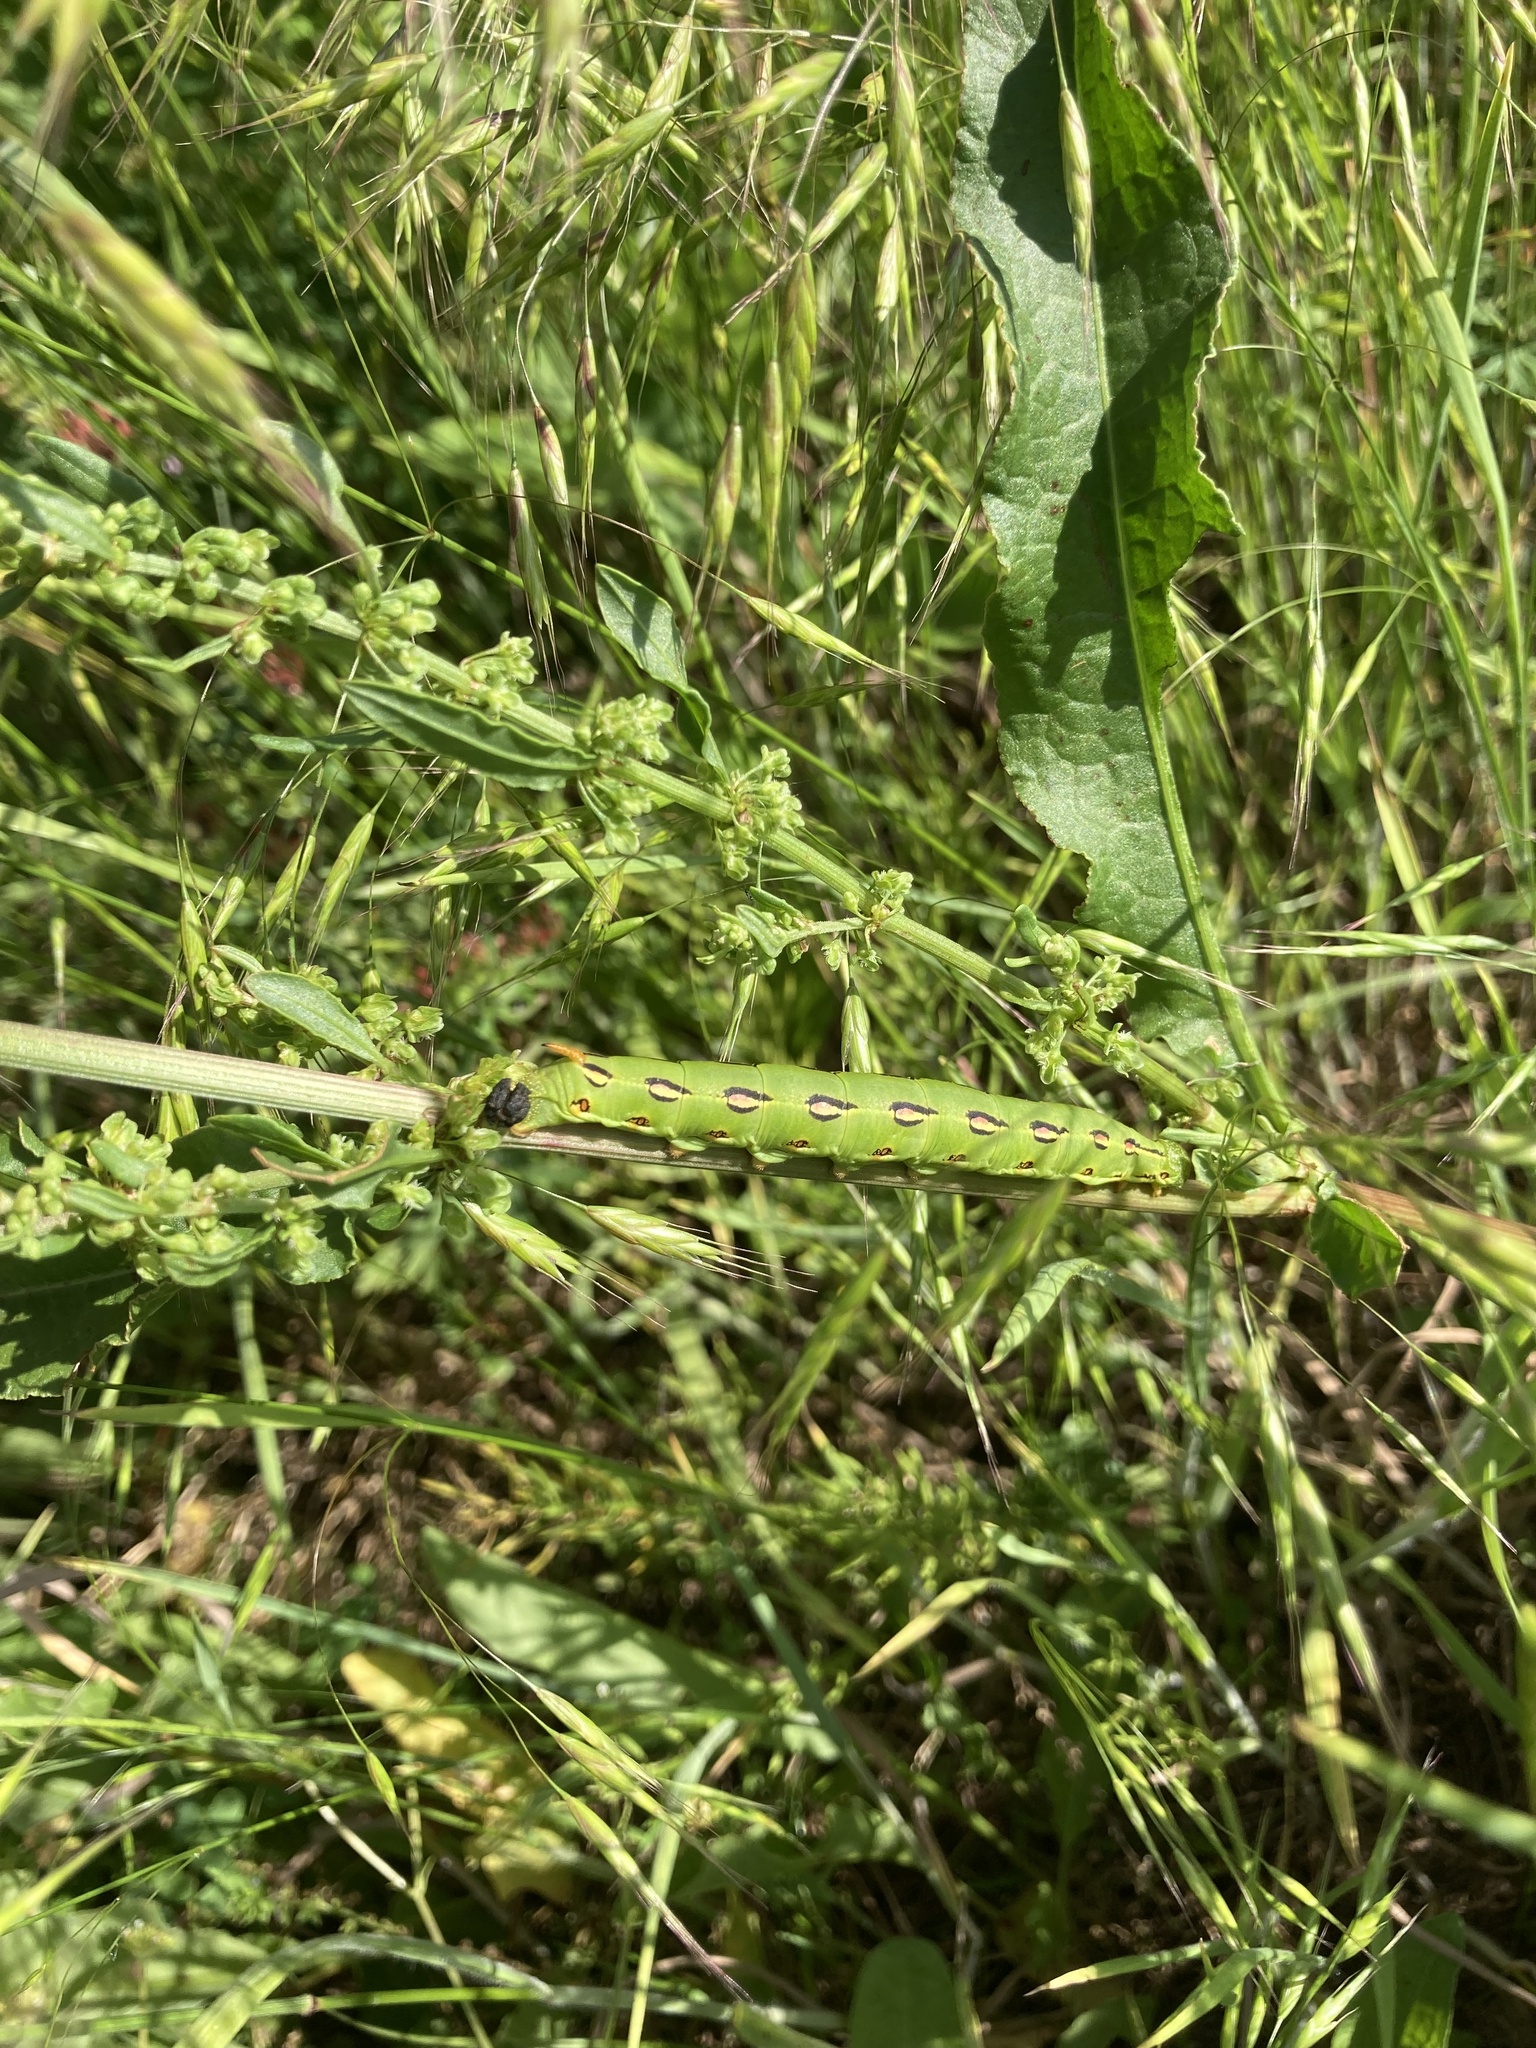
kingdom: Animalia
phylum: Arthropoda
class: Insecta
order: Lepidoptera
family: Sphingidae
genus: Hyles
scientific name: Hyles lineata
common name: White-lined sphinx
